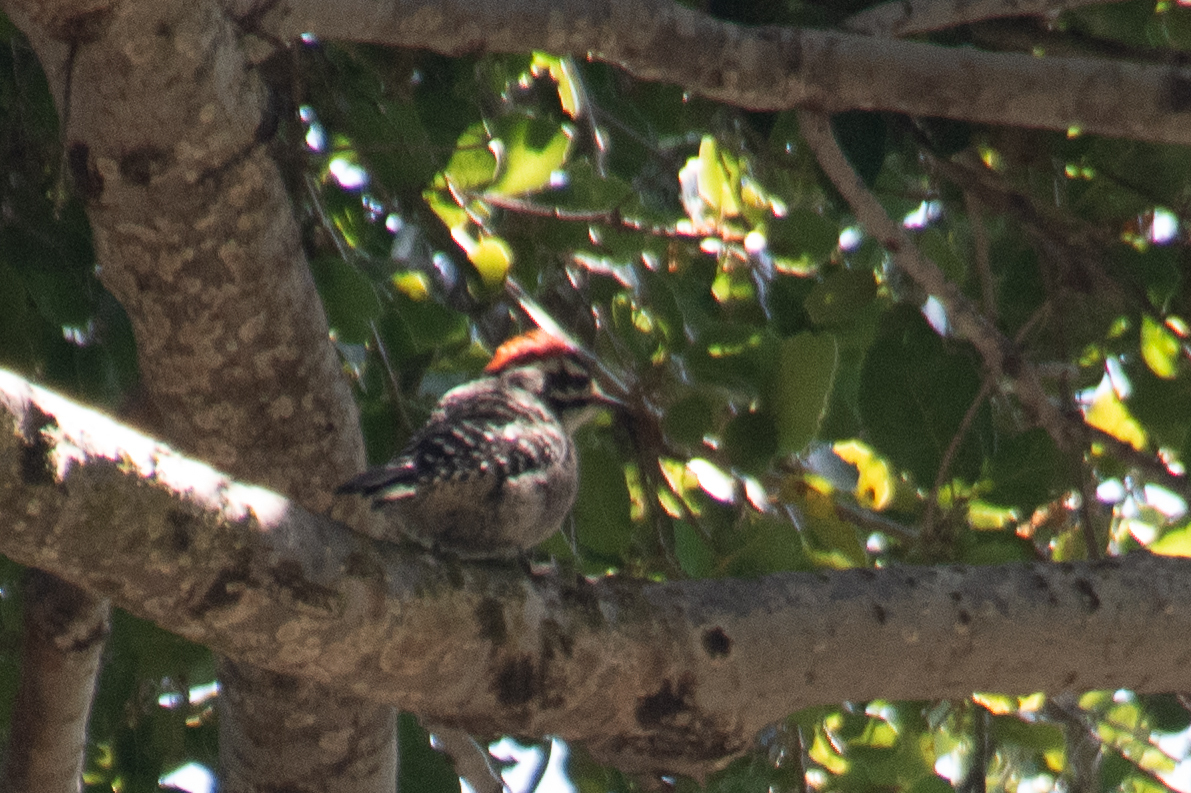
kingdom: Animalia
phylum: Chordata
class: Aves
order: Piciformes
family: Picidae
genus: Dryobates
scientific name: Dryobates nuttallii
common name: Nuttall's woodpecker
